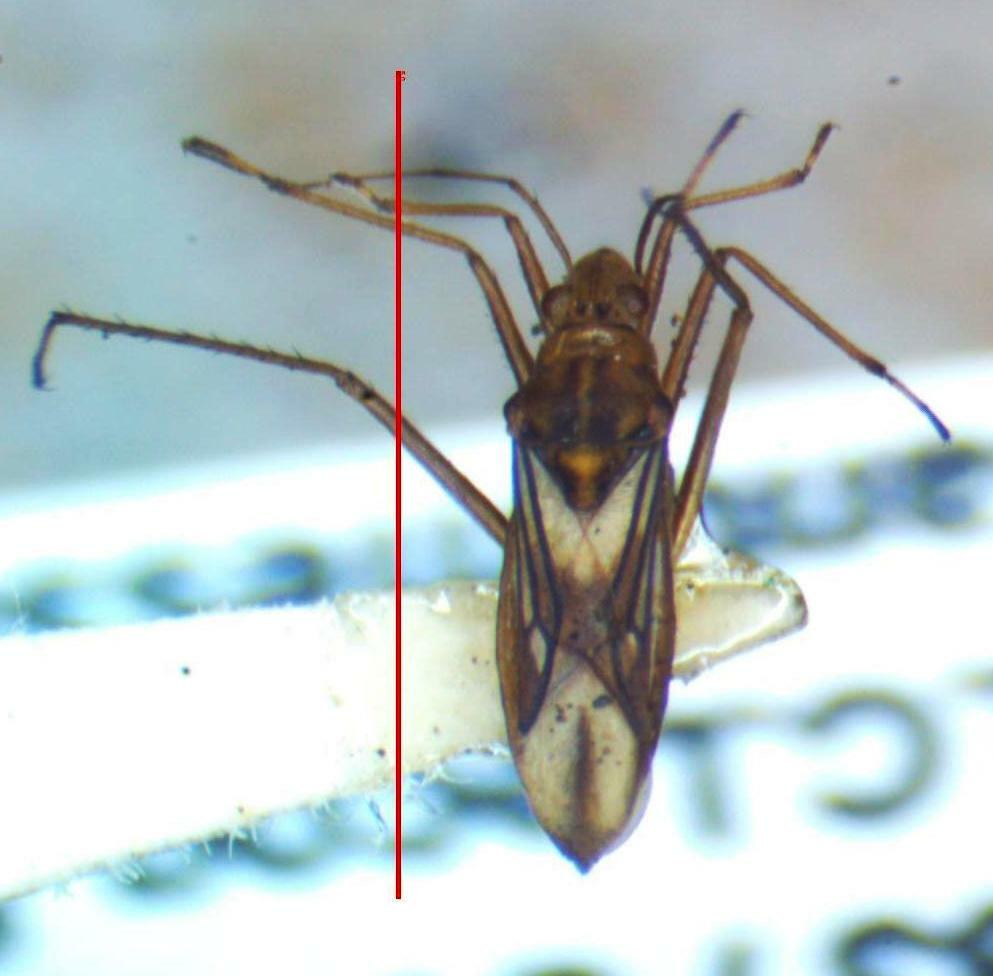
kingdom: Animalia
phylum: Arthropoda
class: Insecta
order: Hemiptera
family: Mesoveliidae
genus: Mesovelia
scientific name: Mesovelia mulsanti
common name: Water treaders
